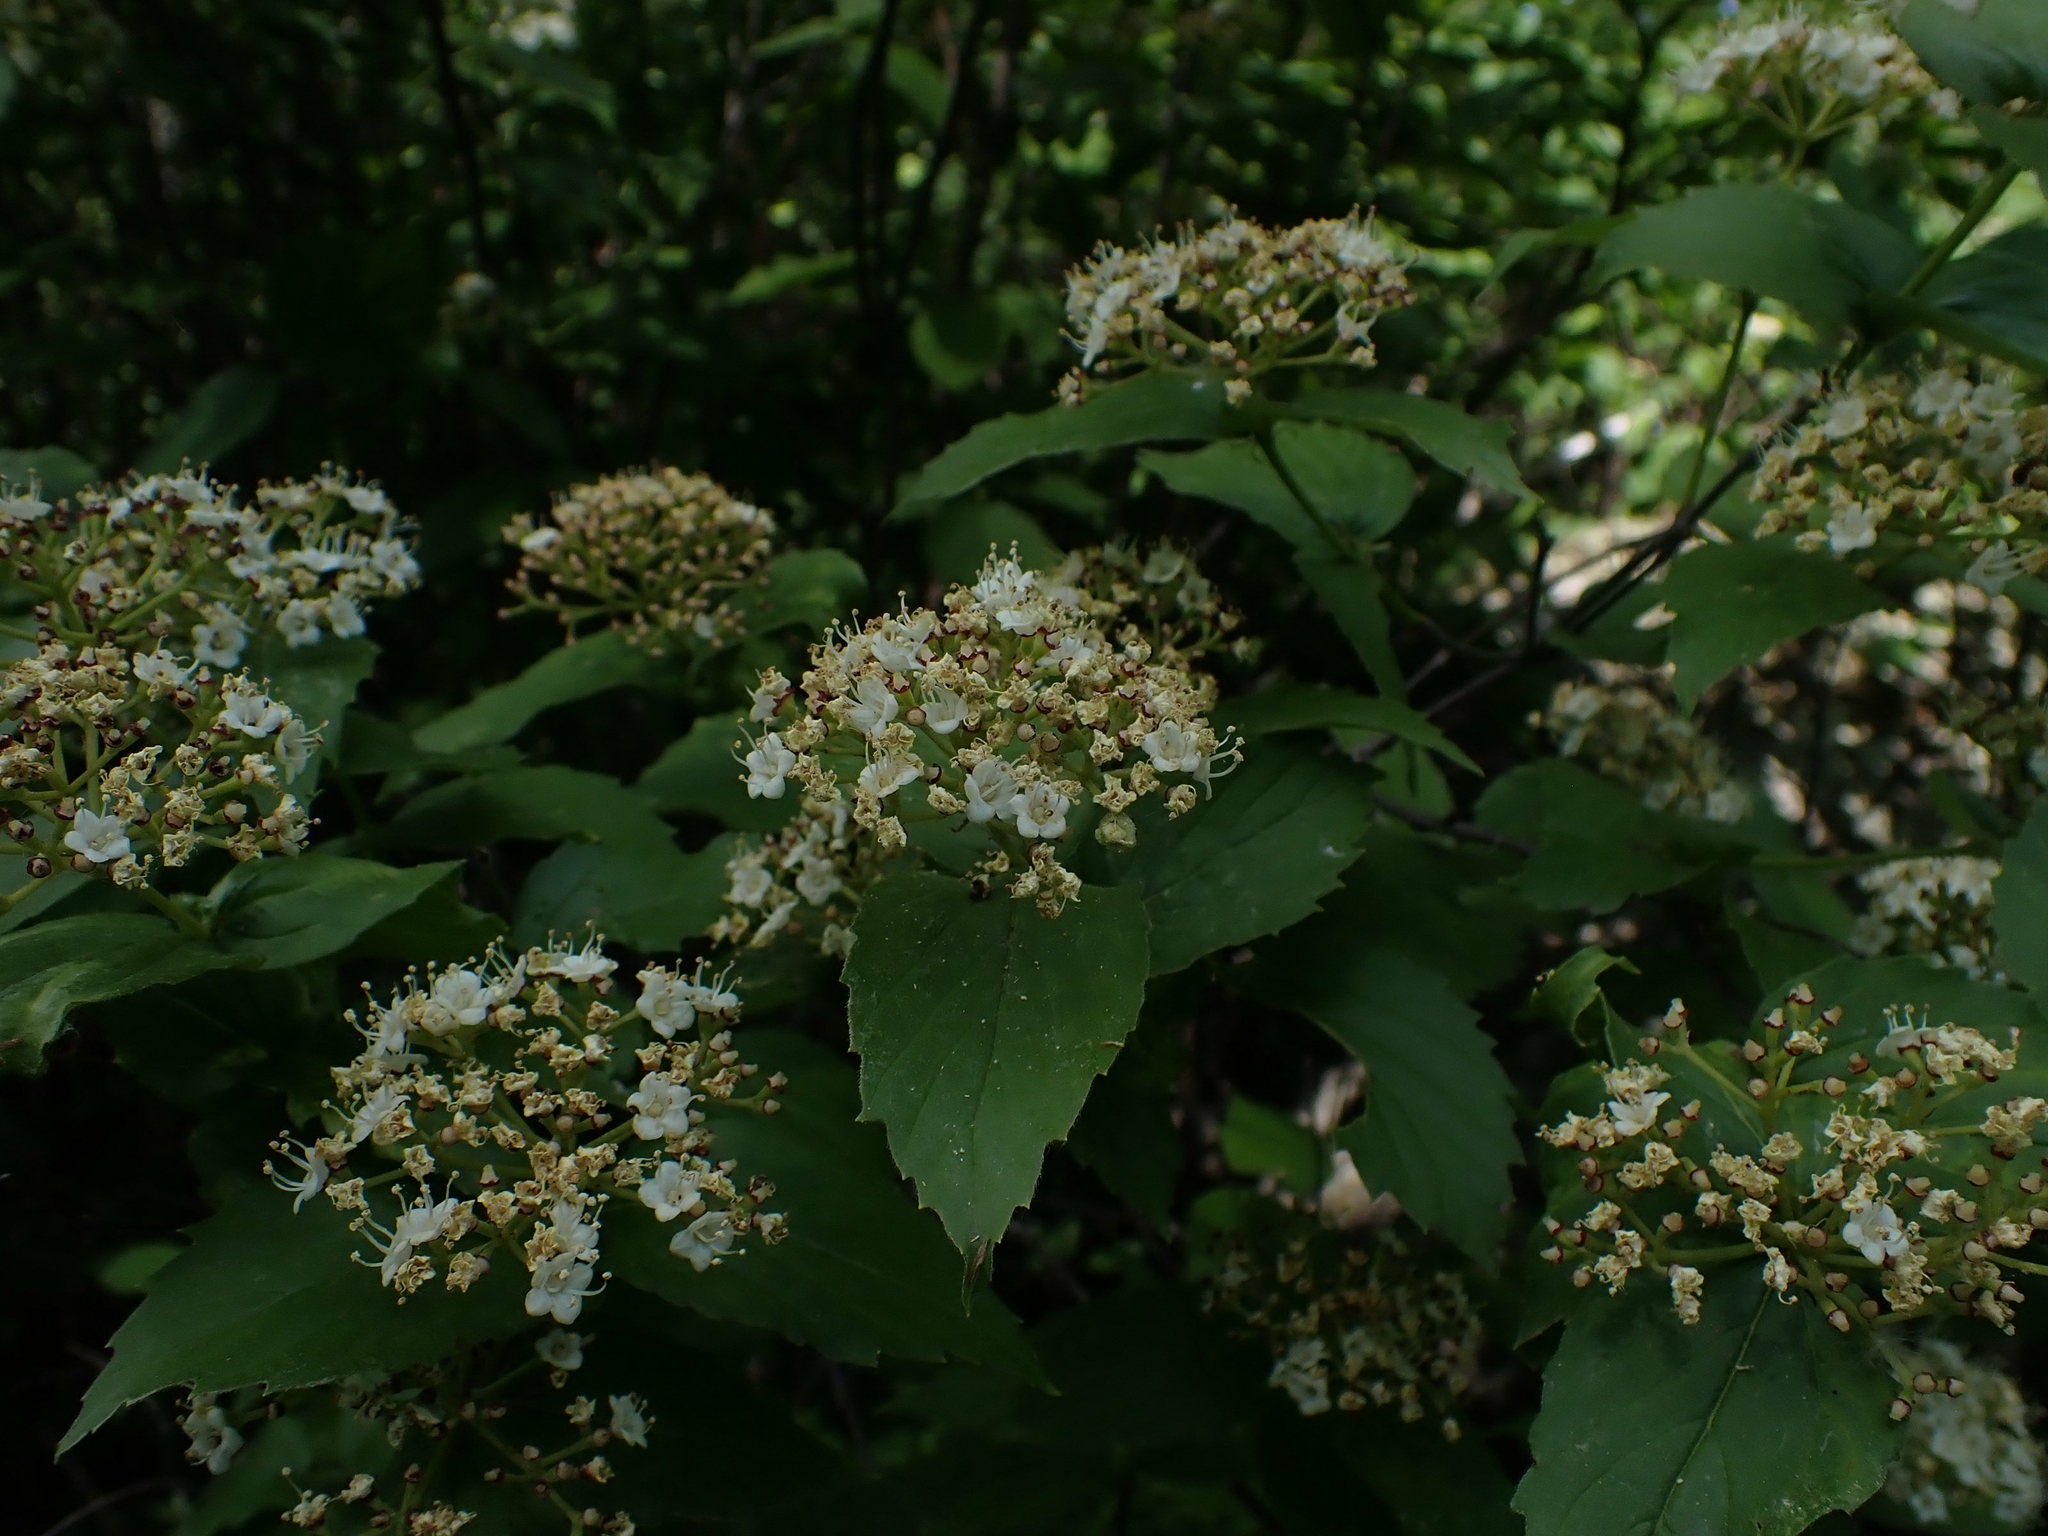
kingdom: Plantae
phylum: Tracheophyta
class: Magnoliopsida
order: Dipsacales
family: Viburnaceae
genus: Viburnum
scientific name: Viburnum rafinesqueanum
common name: Downy arrow-wood
